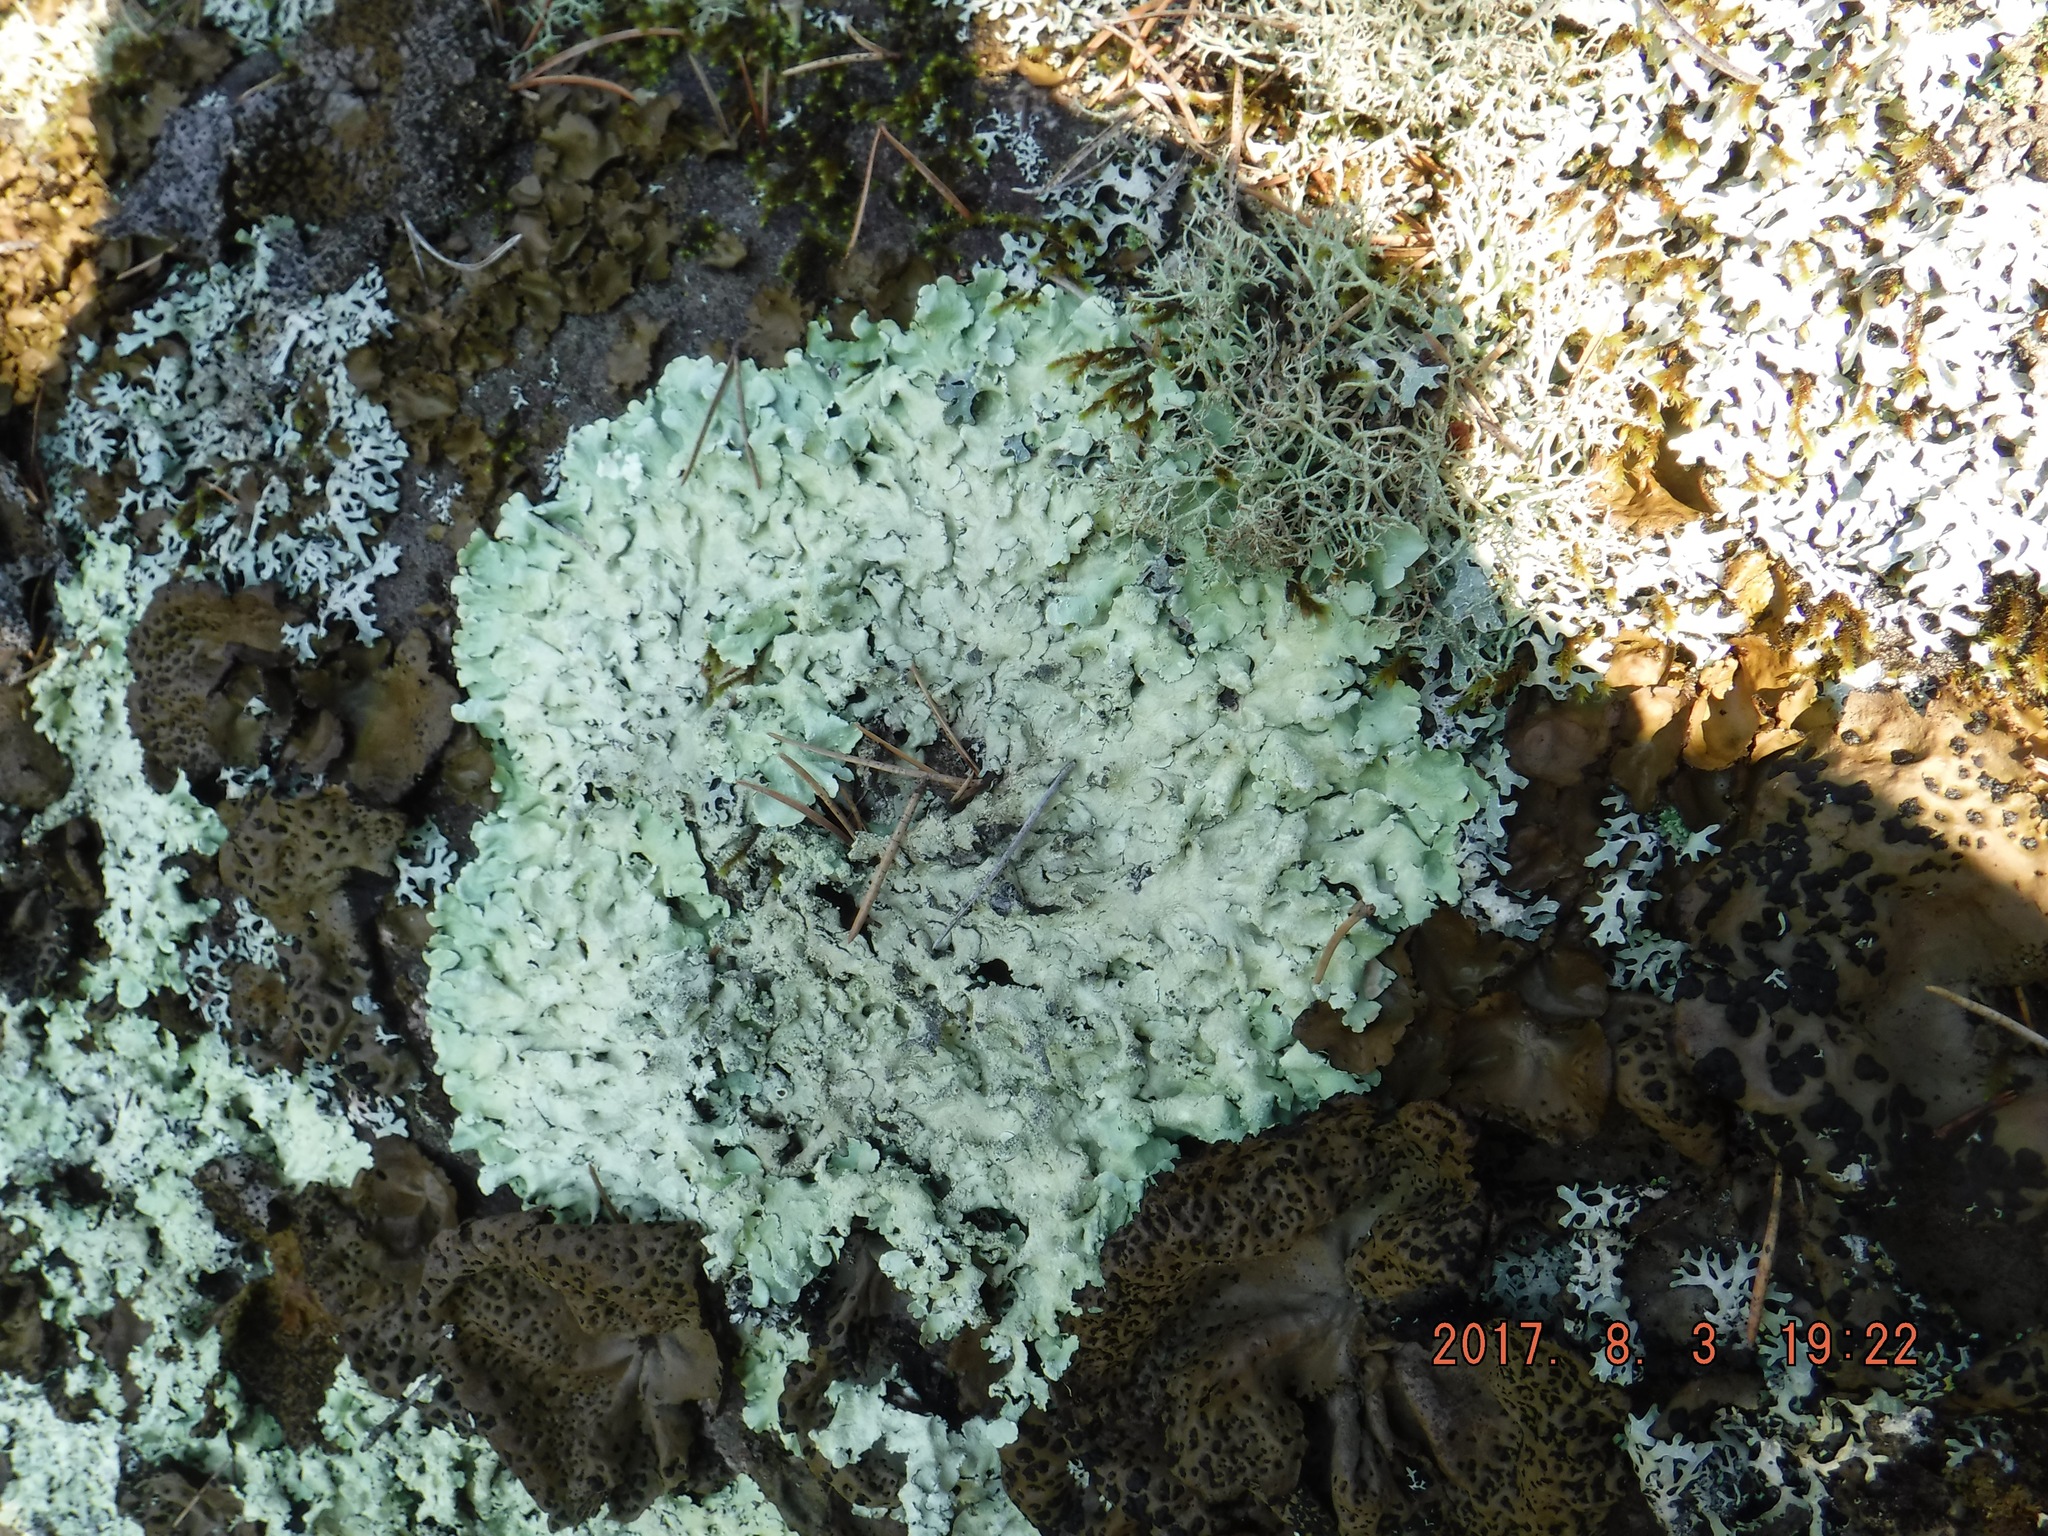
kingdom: Fungi
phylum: Ascomycota
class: Lecanoromycetes
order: Lecanorales
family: Parmeliaceae
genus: Flavoparmelia
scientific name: Flavoparmelia baltimorensis
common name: Rock greenshield
